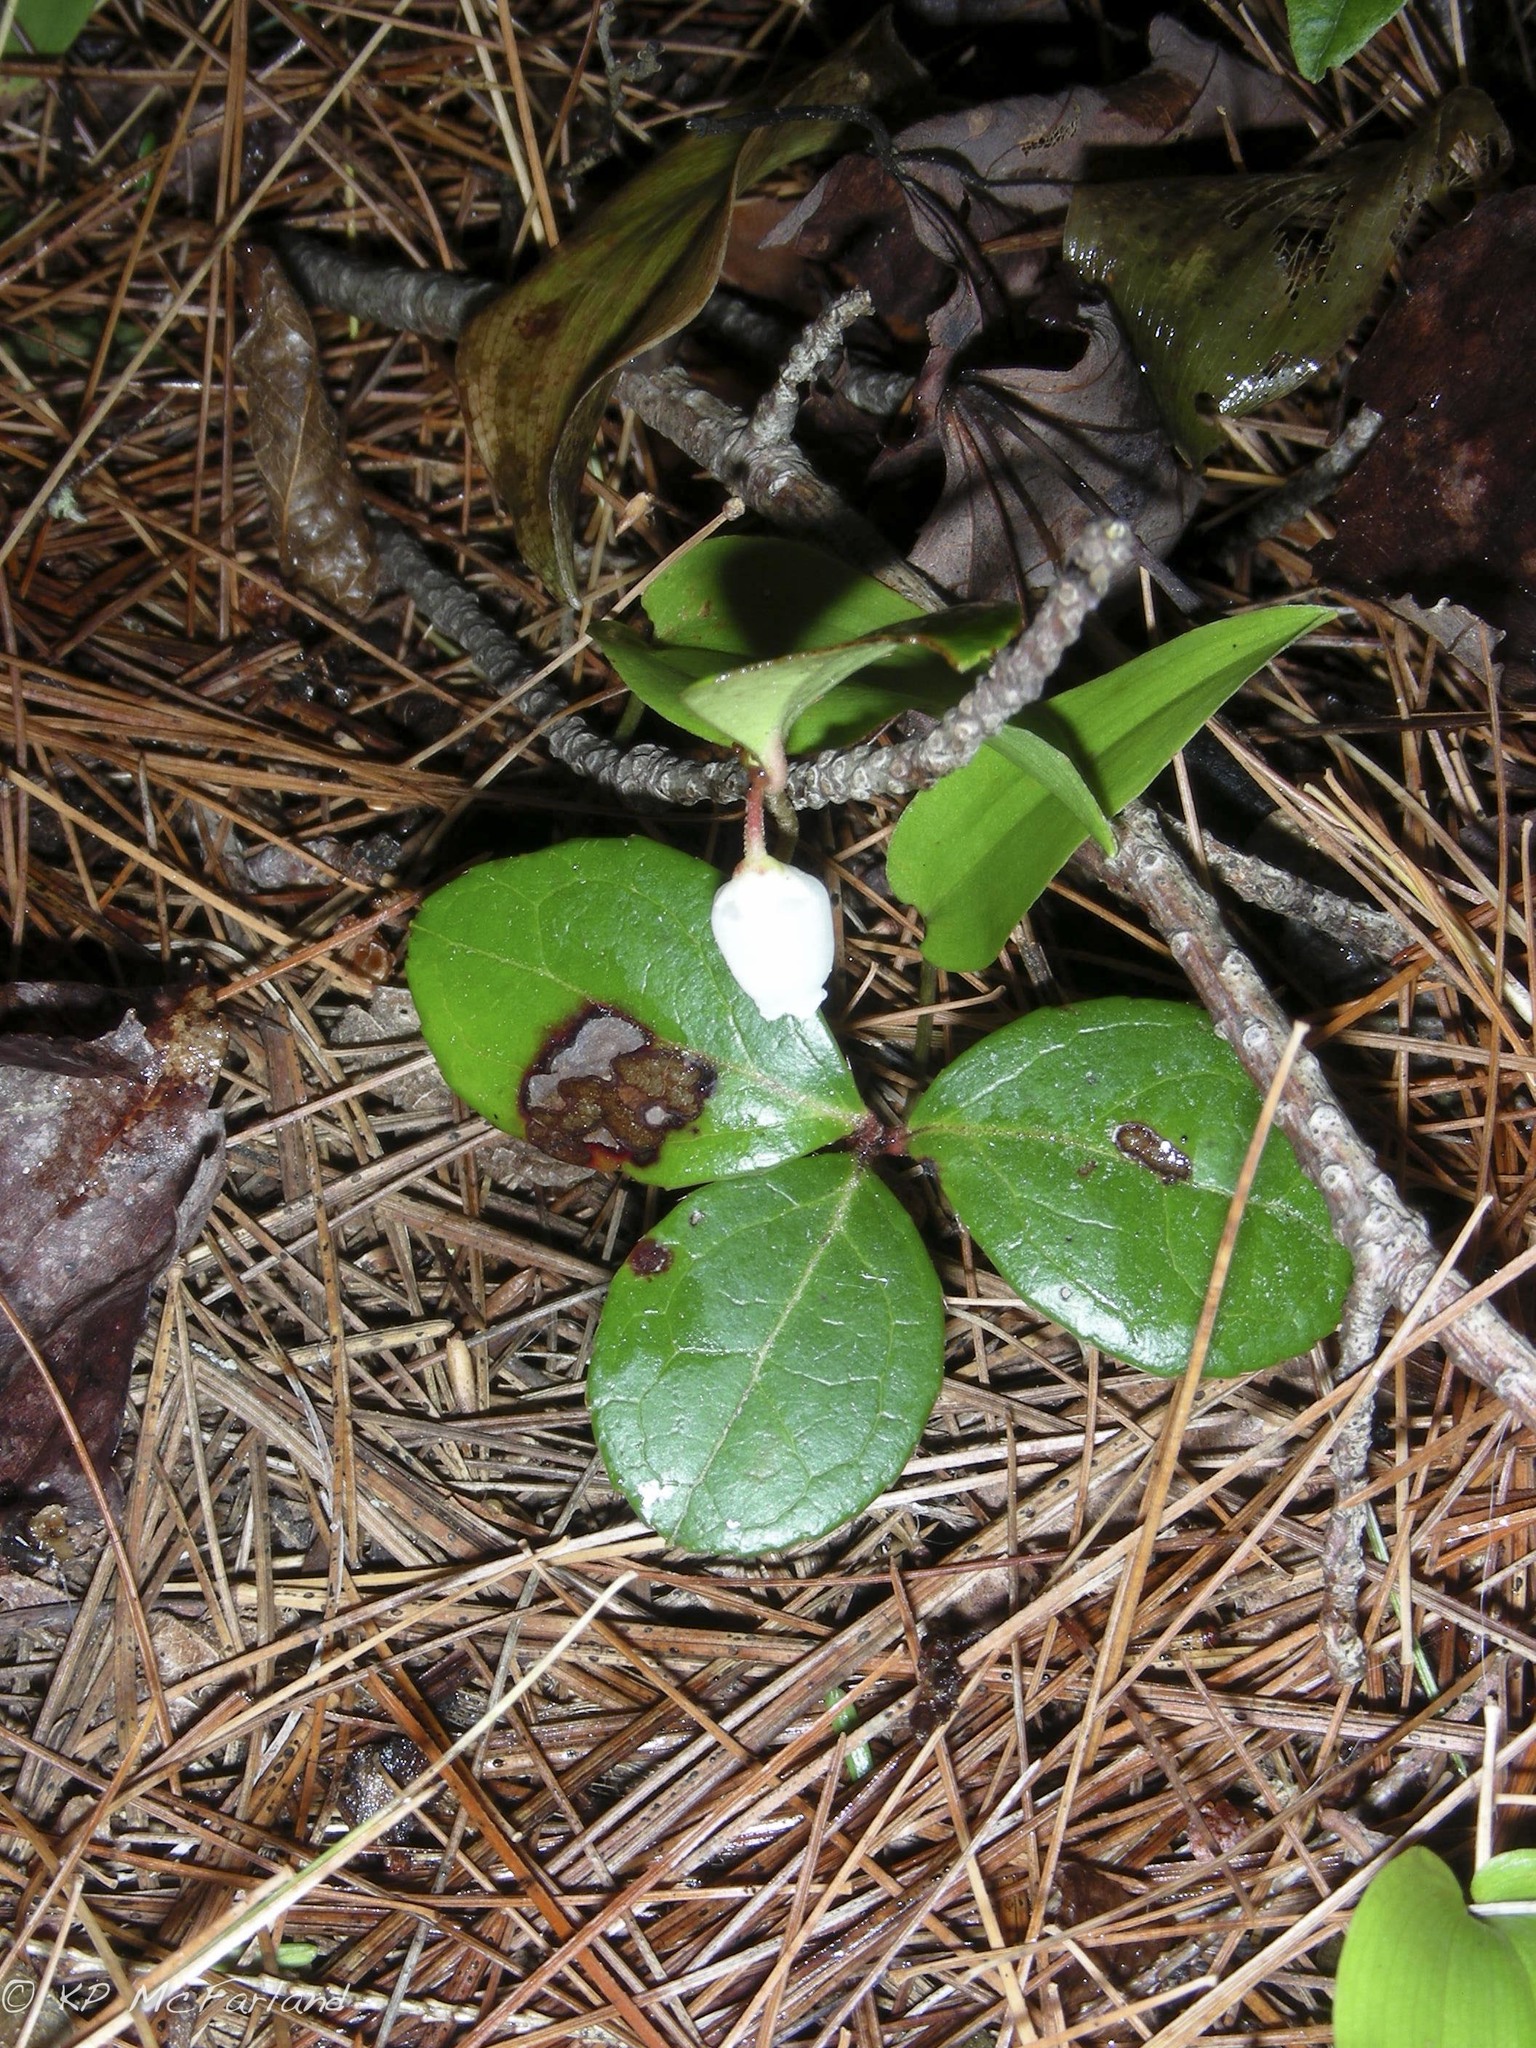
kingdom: Plantae
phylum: Tracheophyta
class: Magnoliopsida
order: Ericales
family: Ericaceae
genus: Gaultheria
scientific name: Gaultheria procumbens
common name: Checkerberry
